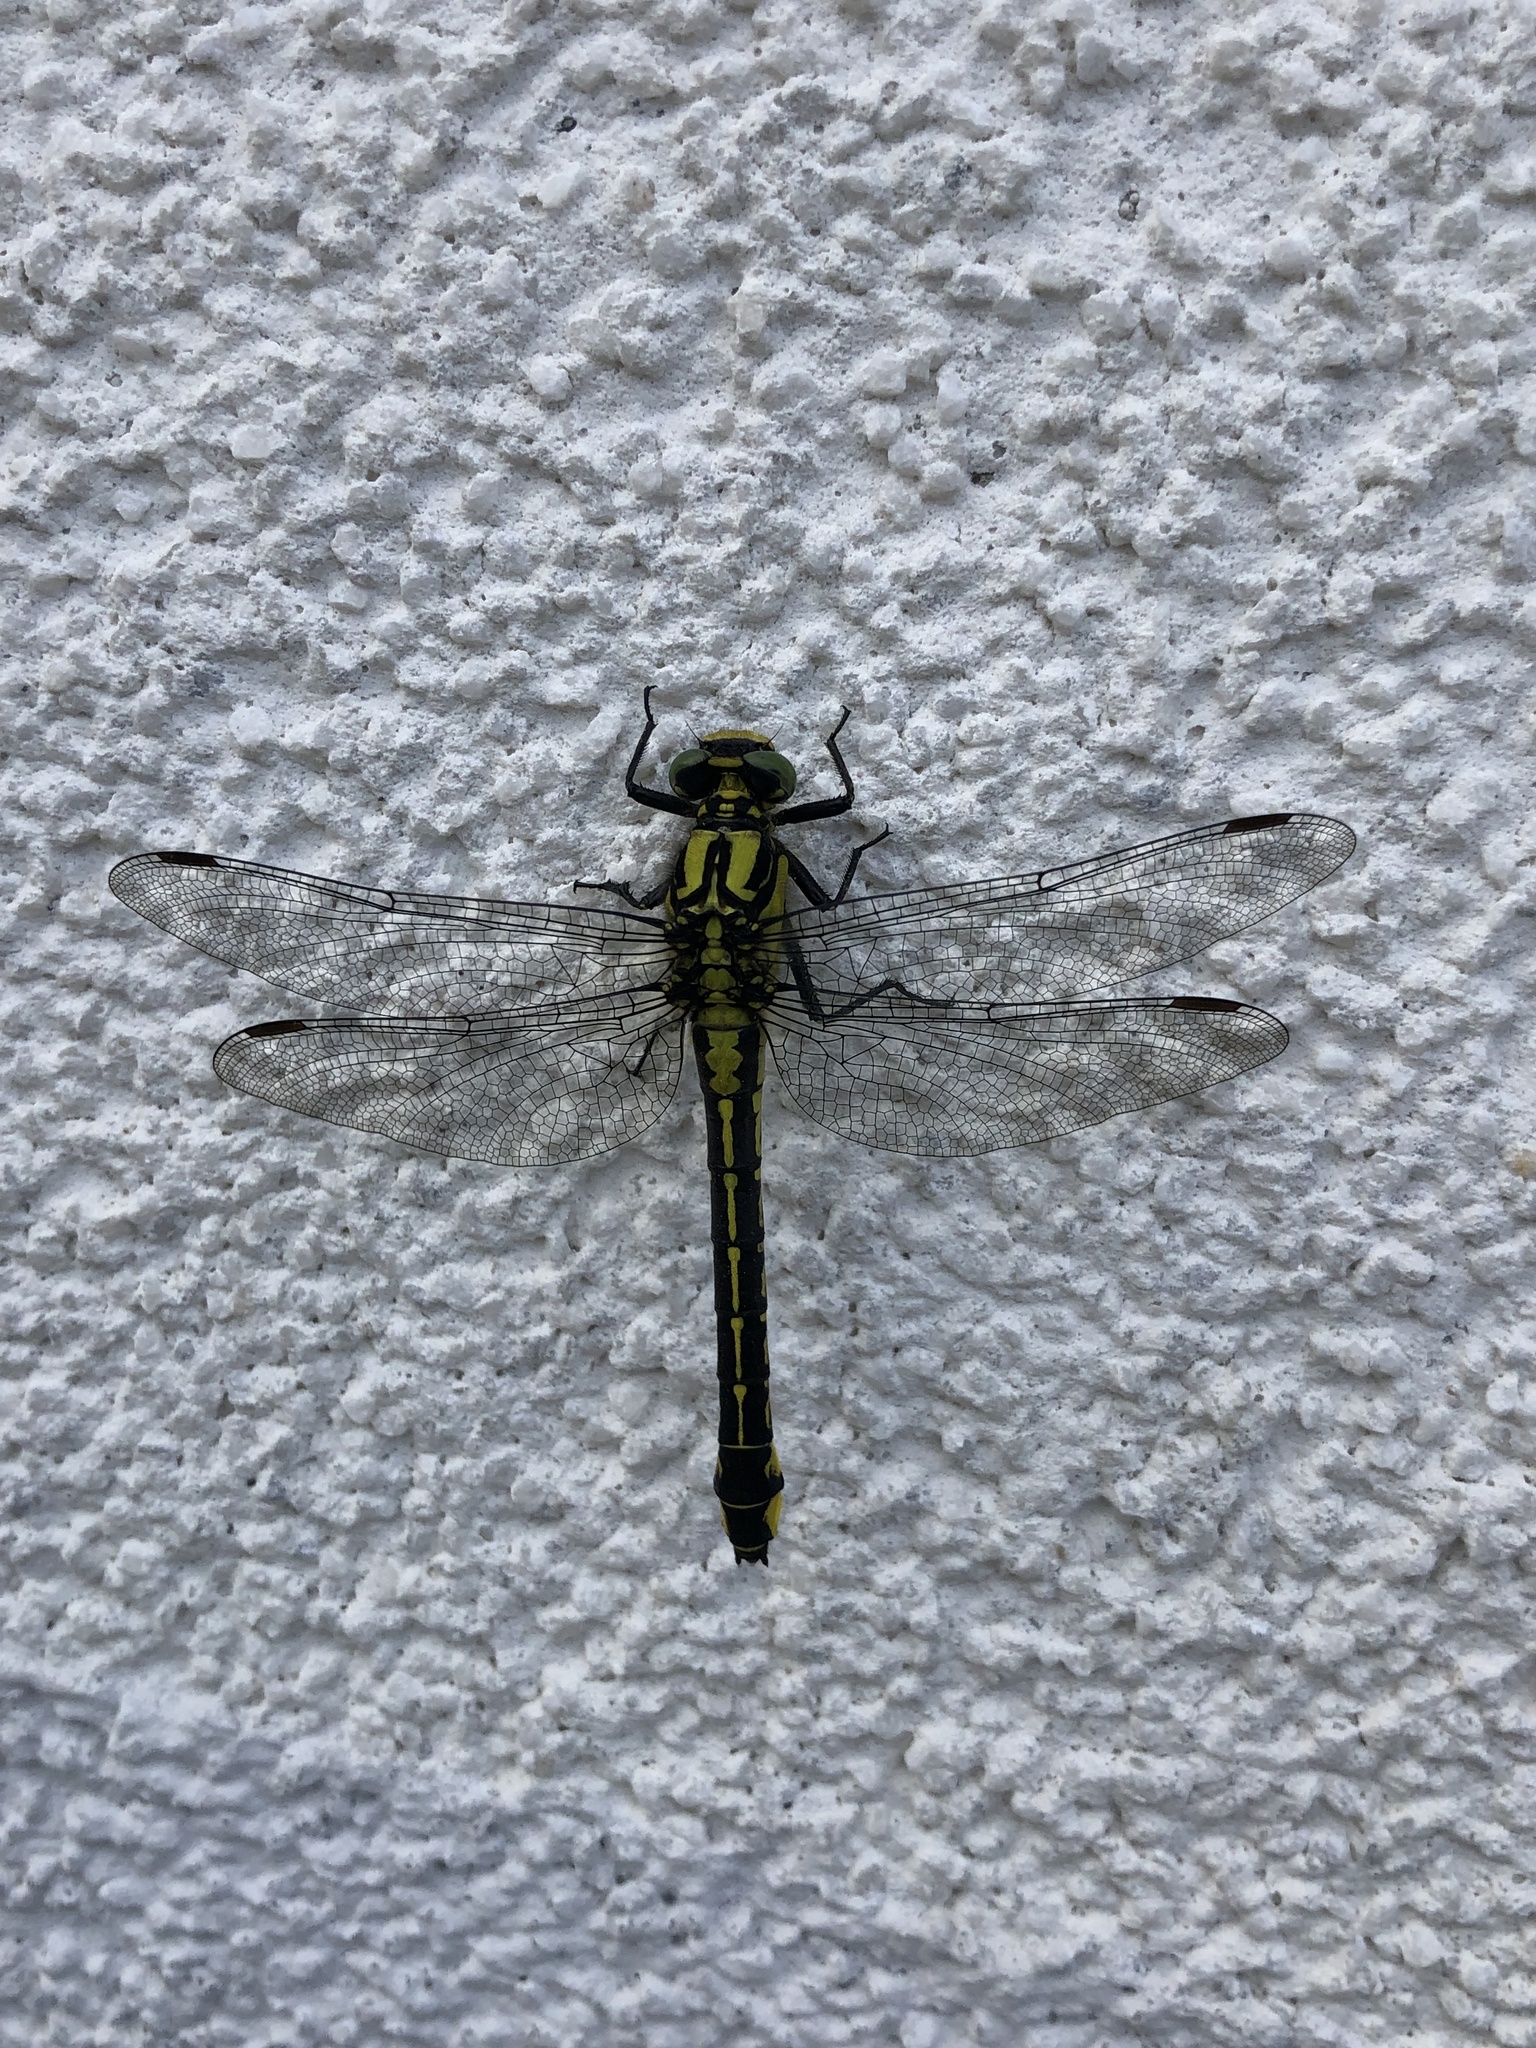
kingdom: Animalia
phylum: Arthropoda
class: Insecta
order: Odonata
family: Gomphidae
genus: Gomphus
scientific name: Gomphus vulgatissimus
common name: Club-tailed dragonfly
